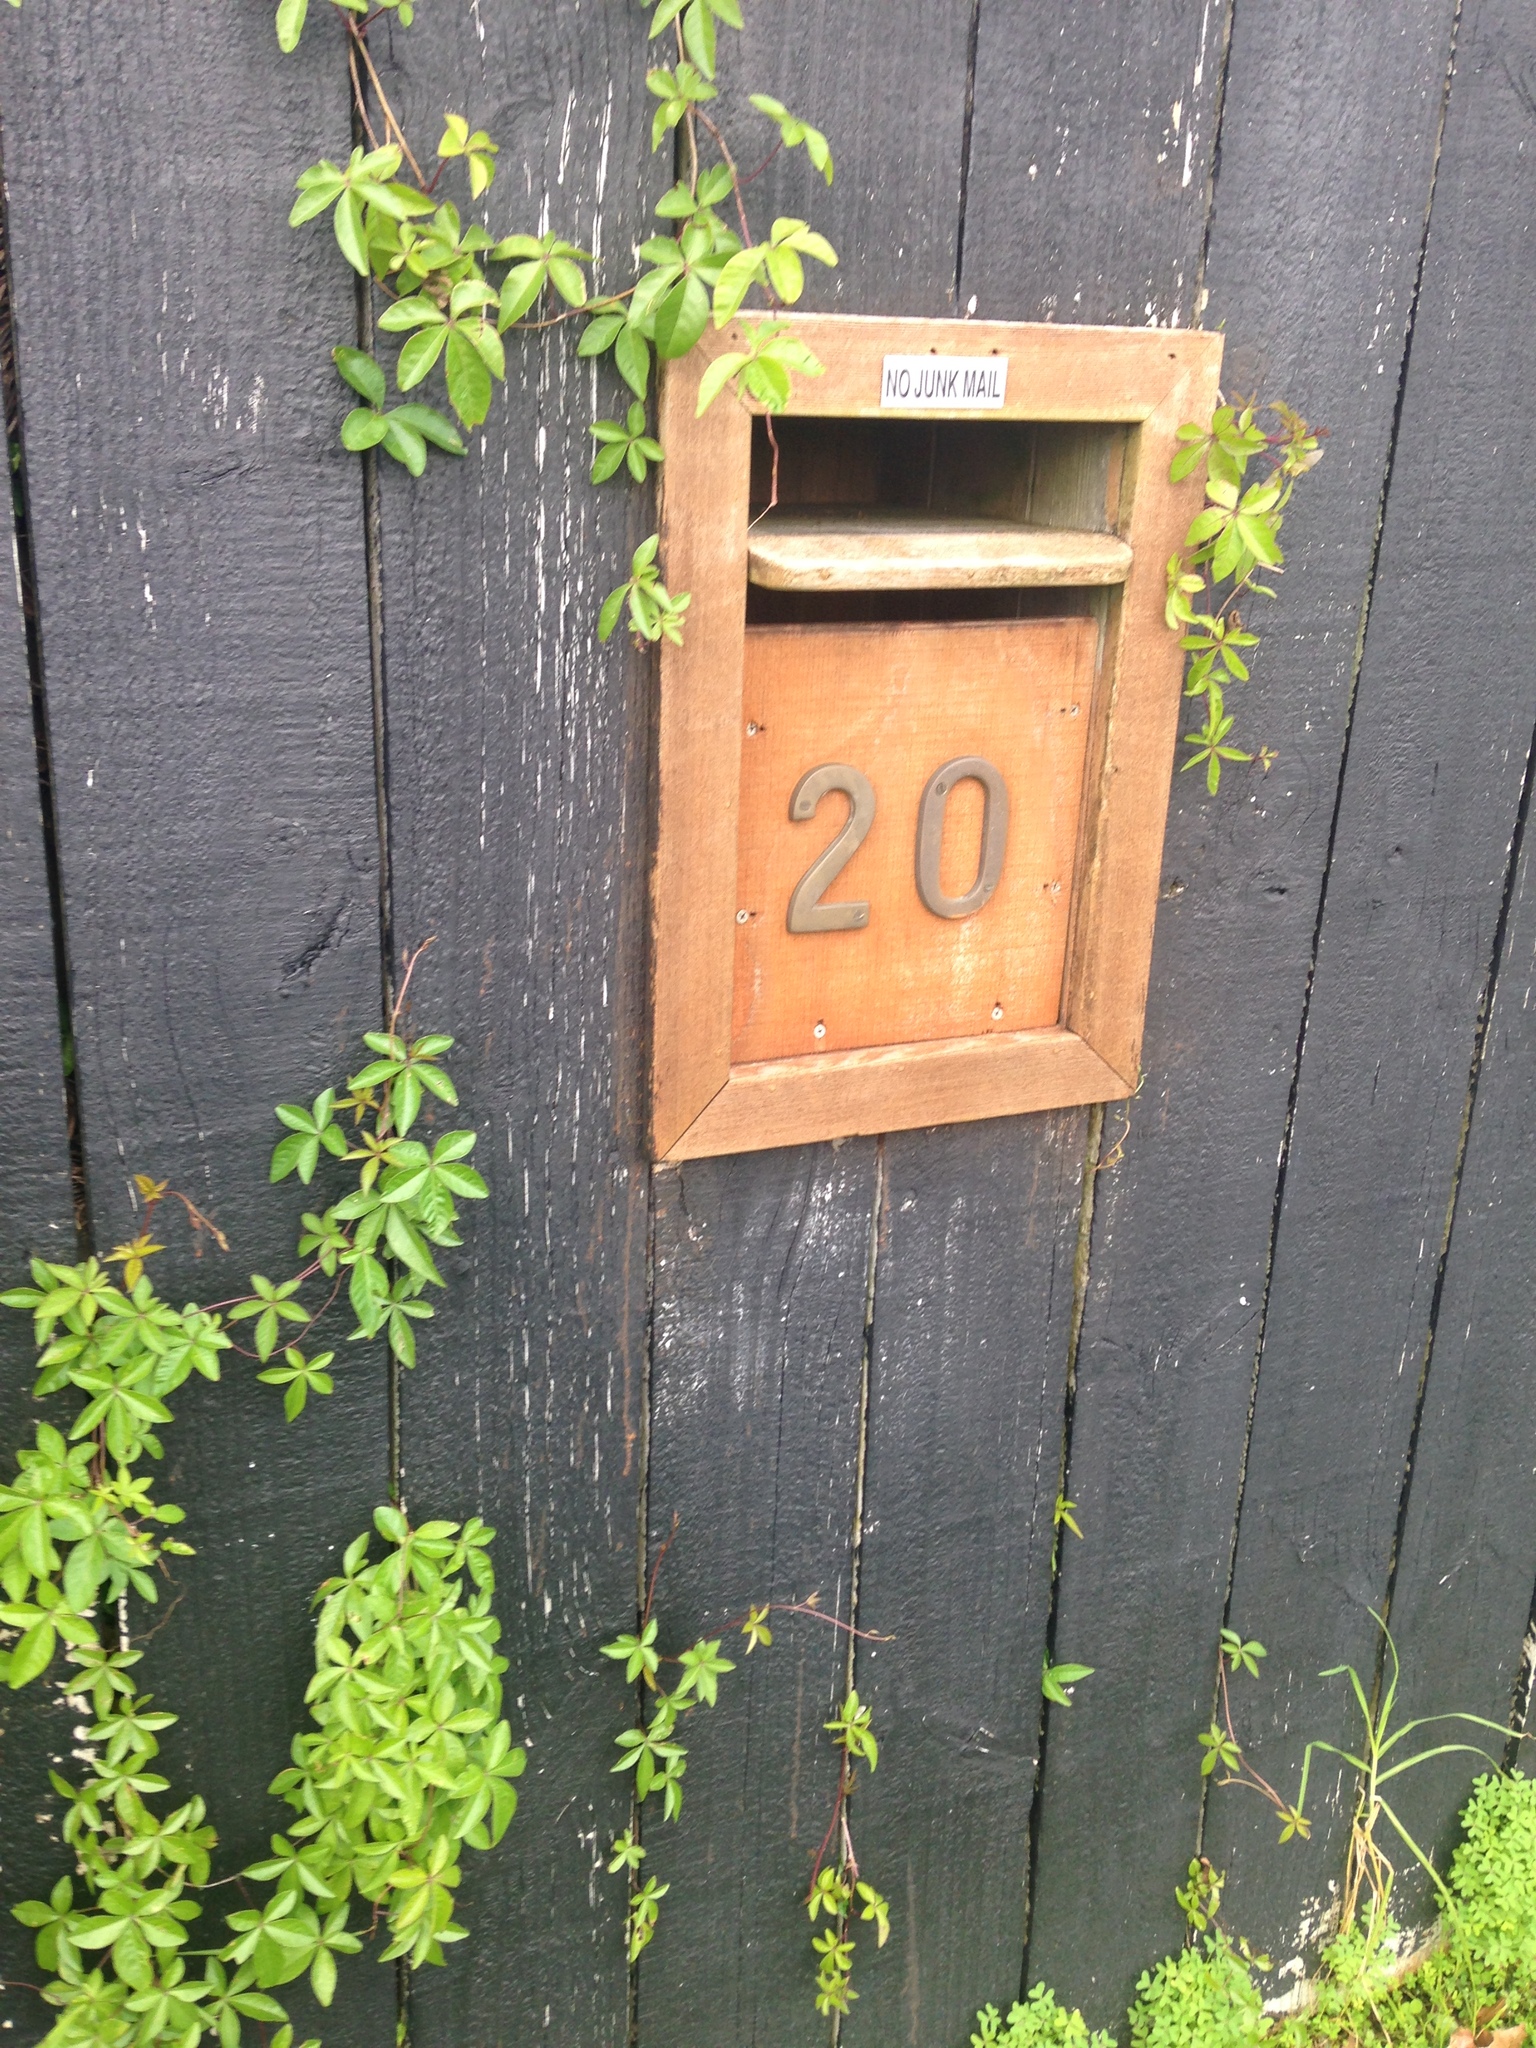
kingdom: Plantae
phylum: Tracheophyta
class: Magnoliopsida
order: Solanales
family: Convolvulaceae
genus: Ipomoea
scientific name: Ipomoea cairica
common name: Mile a minute vine
